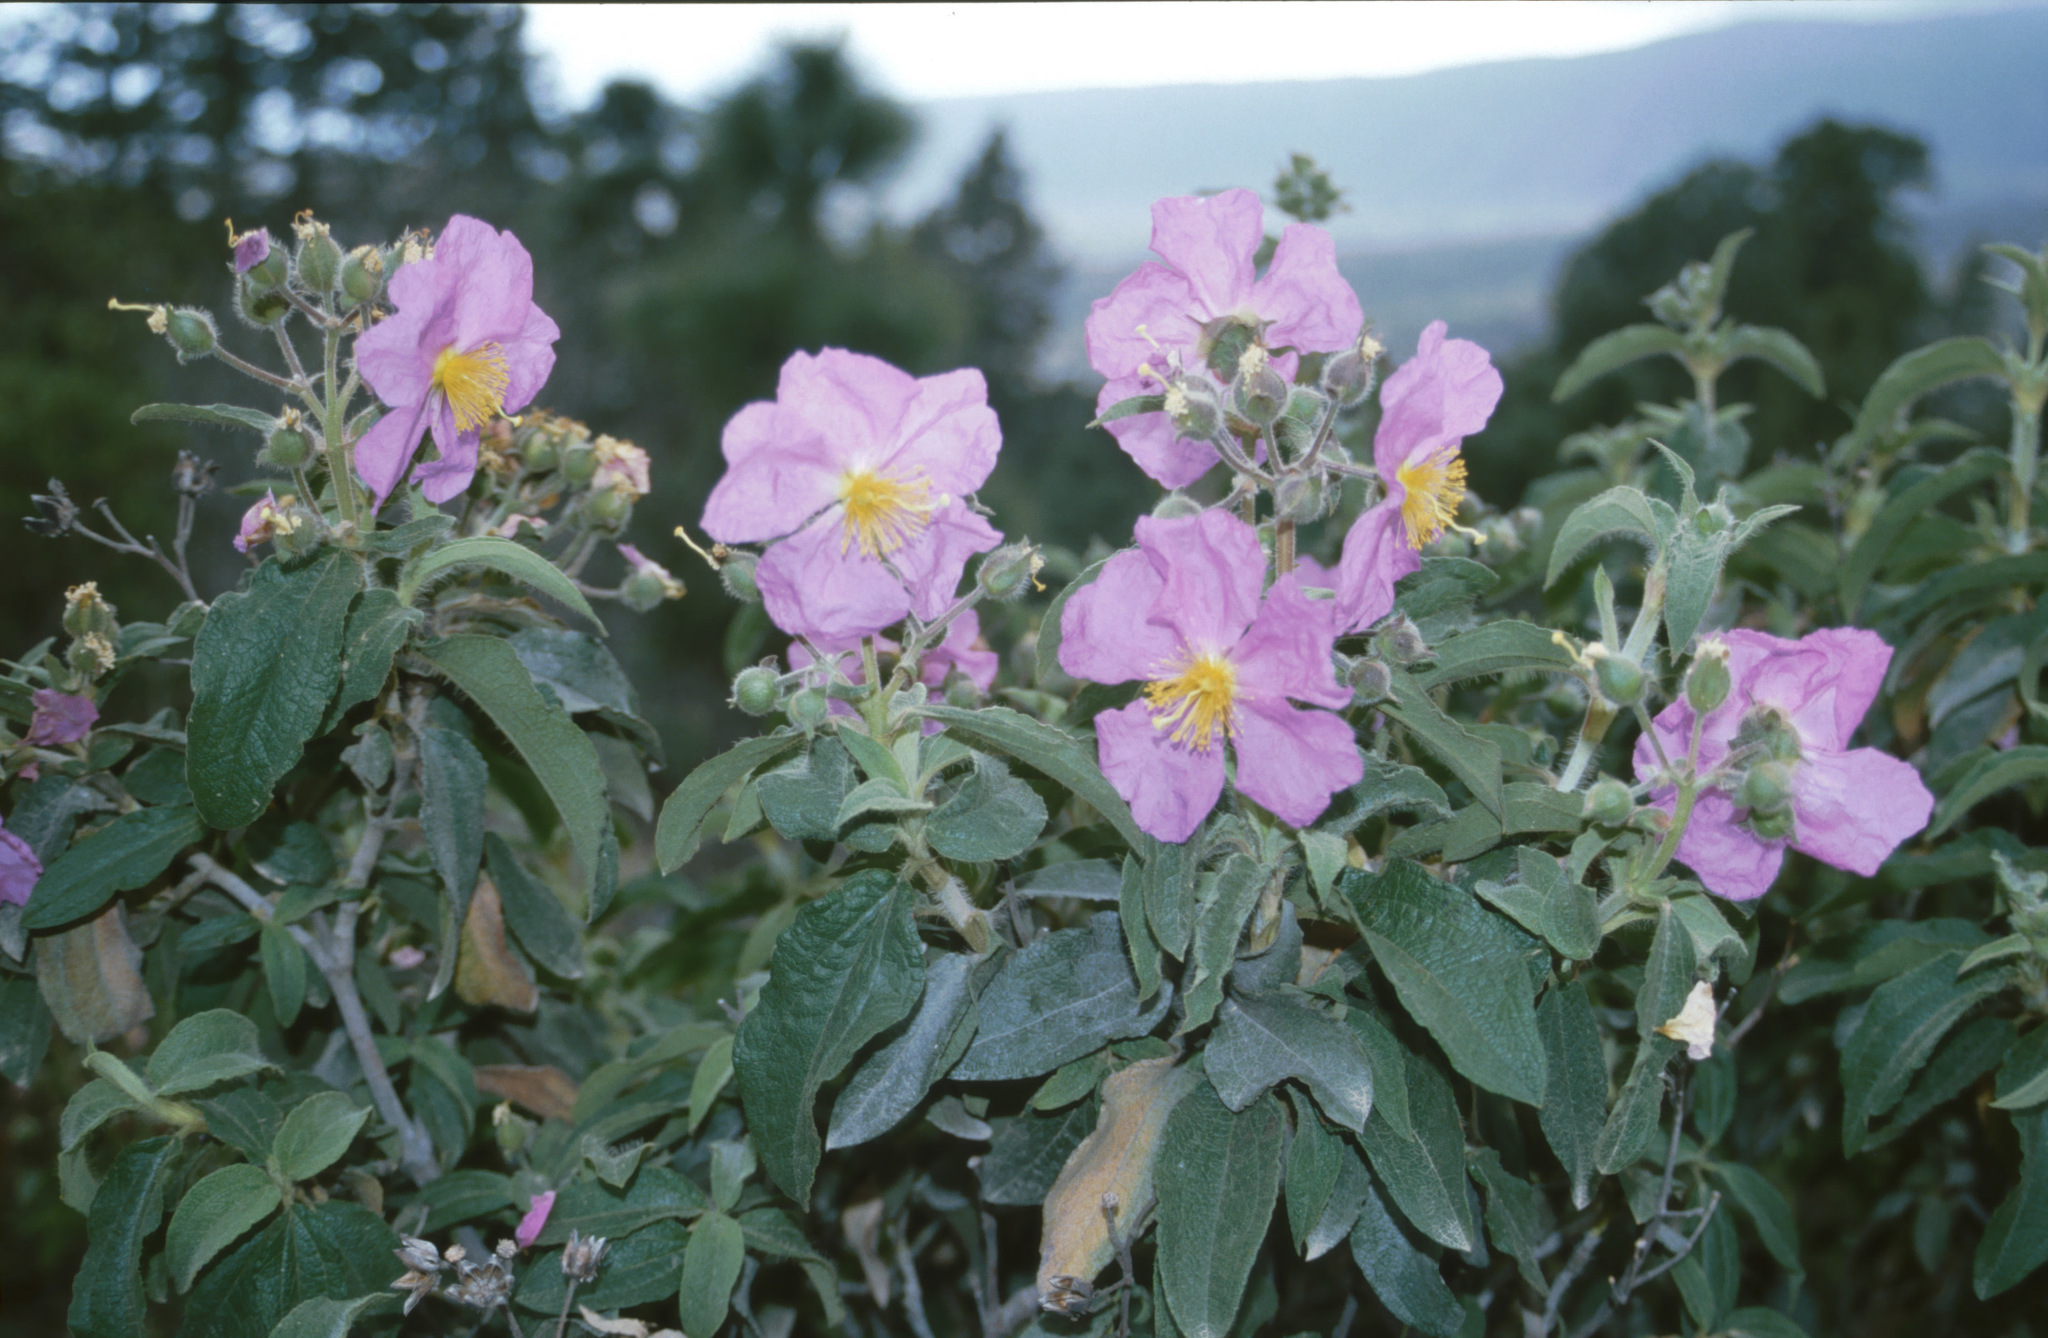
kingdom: Plantae
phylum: Tracheophyta
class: Magnoliopsida
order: Malvales
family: Cistaceae
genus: Cistus
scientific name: Cistus symphytifolius
